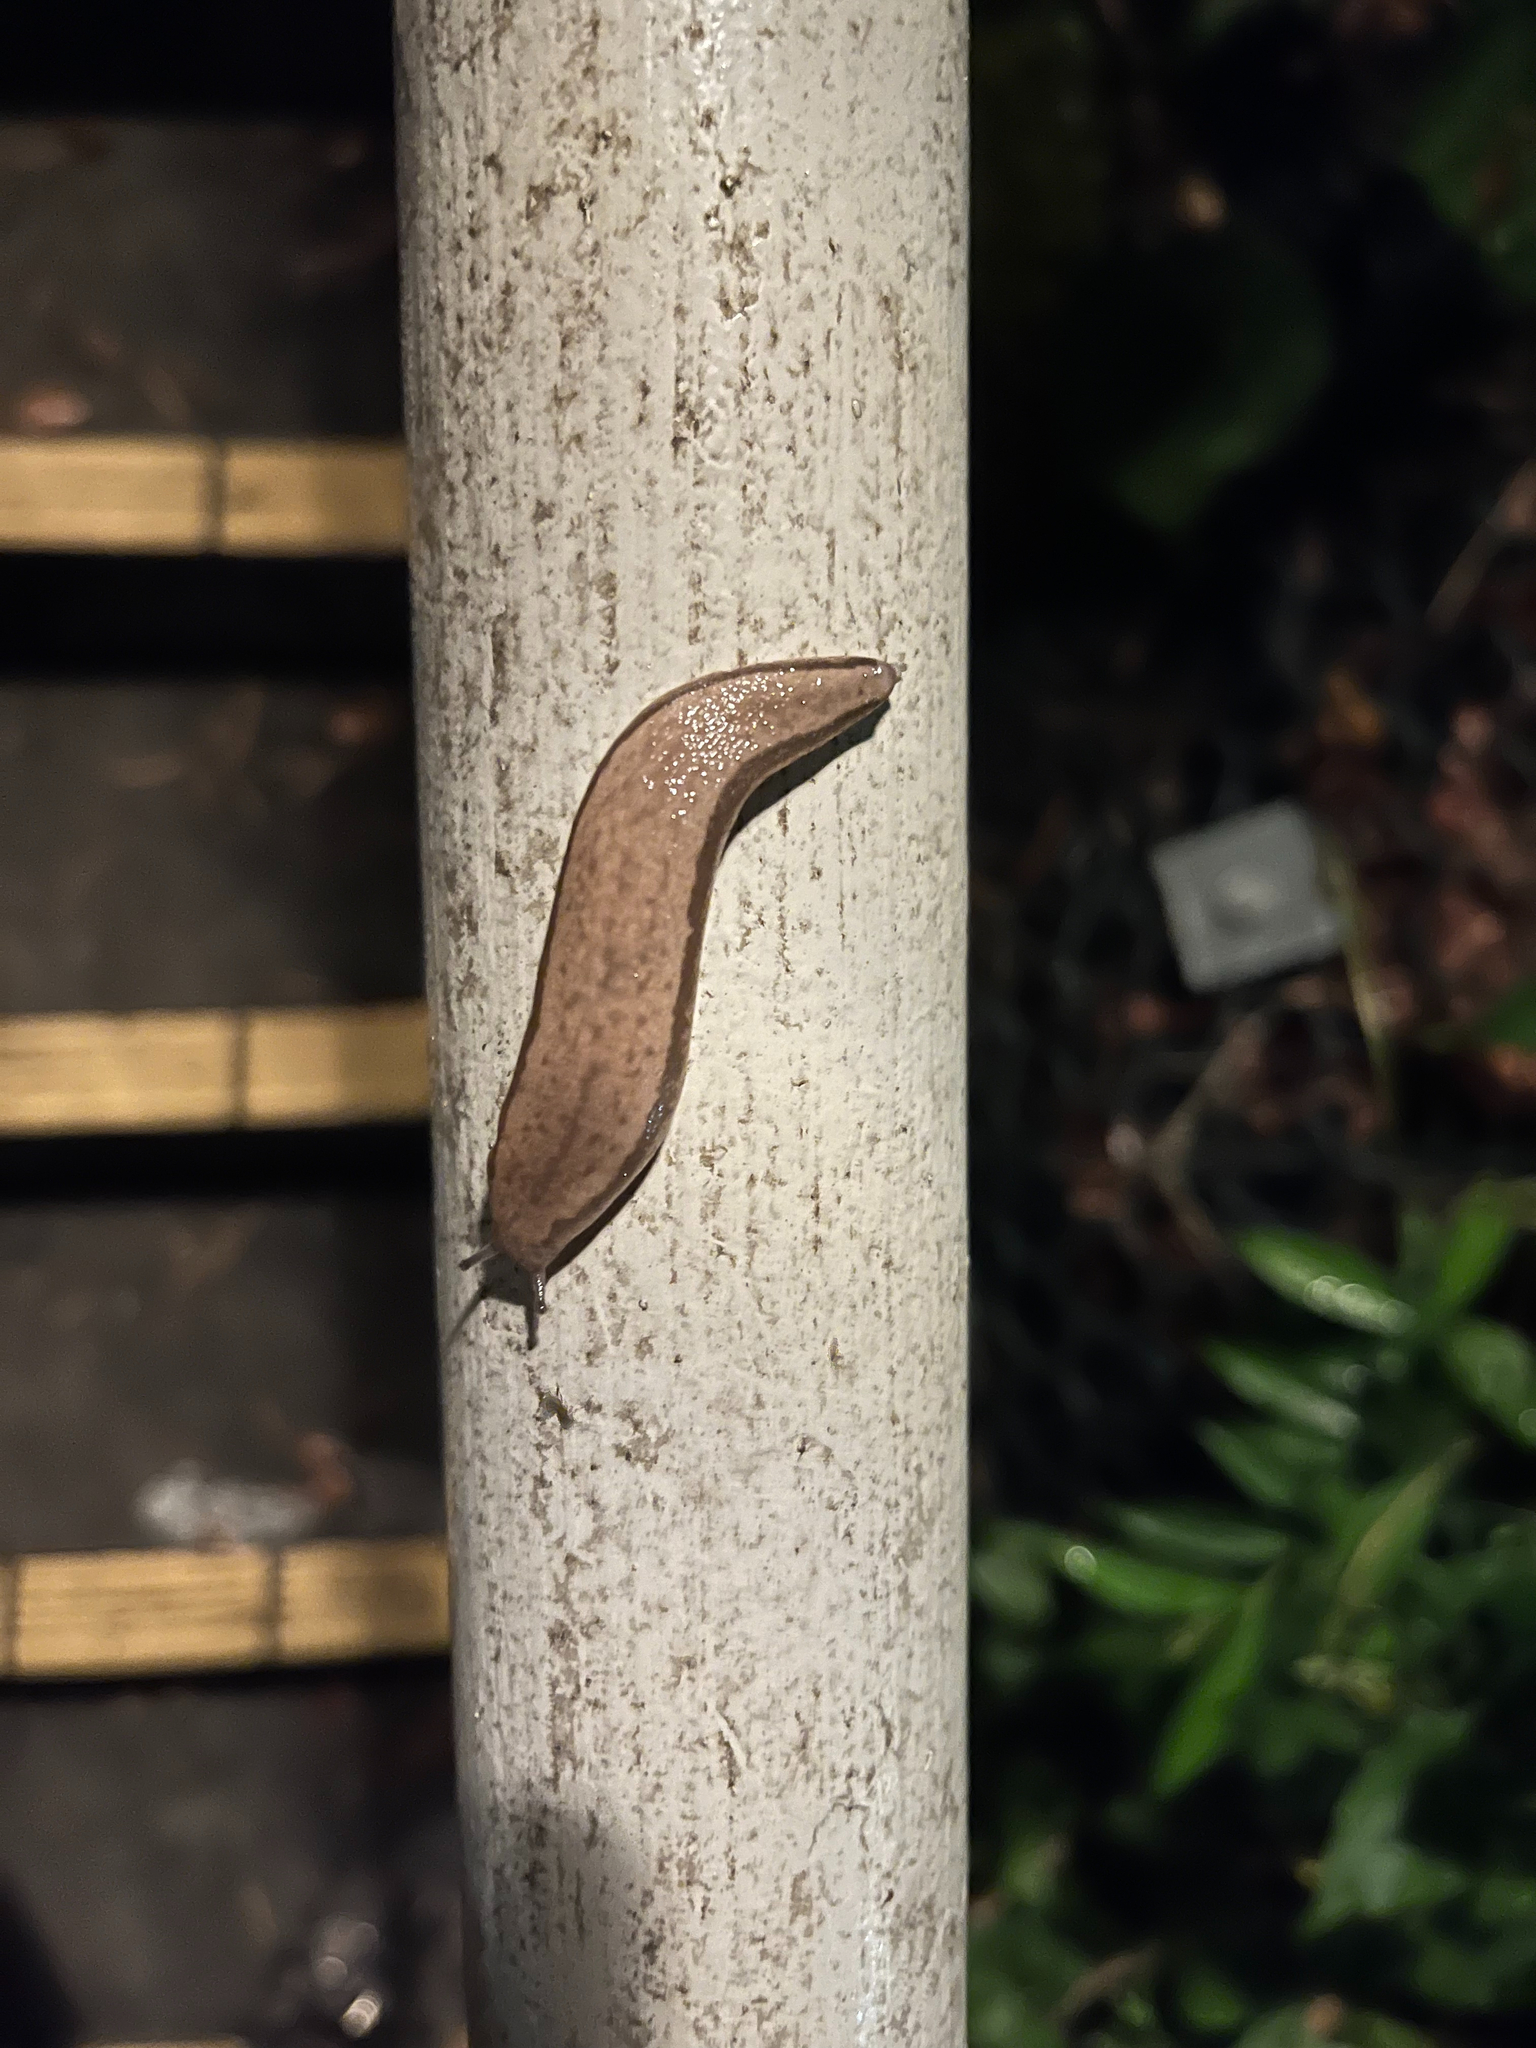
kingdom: Animalia
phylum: Mollusca
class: Gastropoda
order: Stylommatophora
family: Philomycidae
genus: Meghimatium
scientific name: Meghimatium bilineatum
